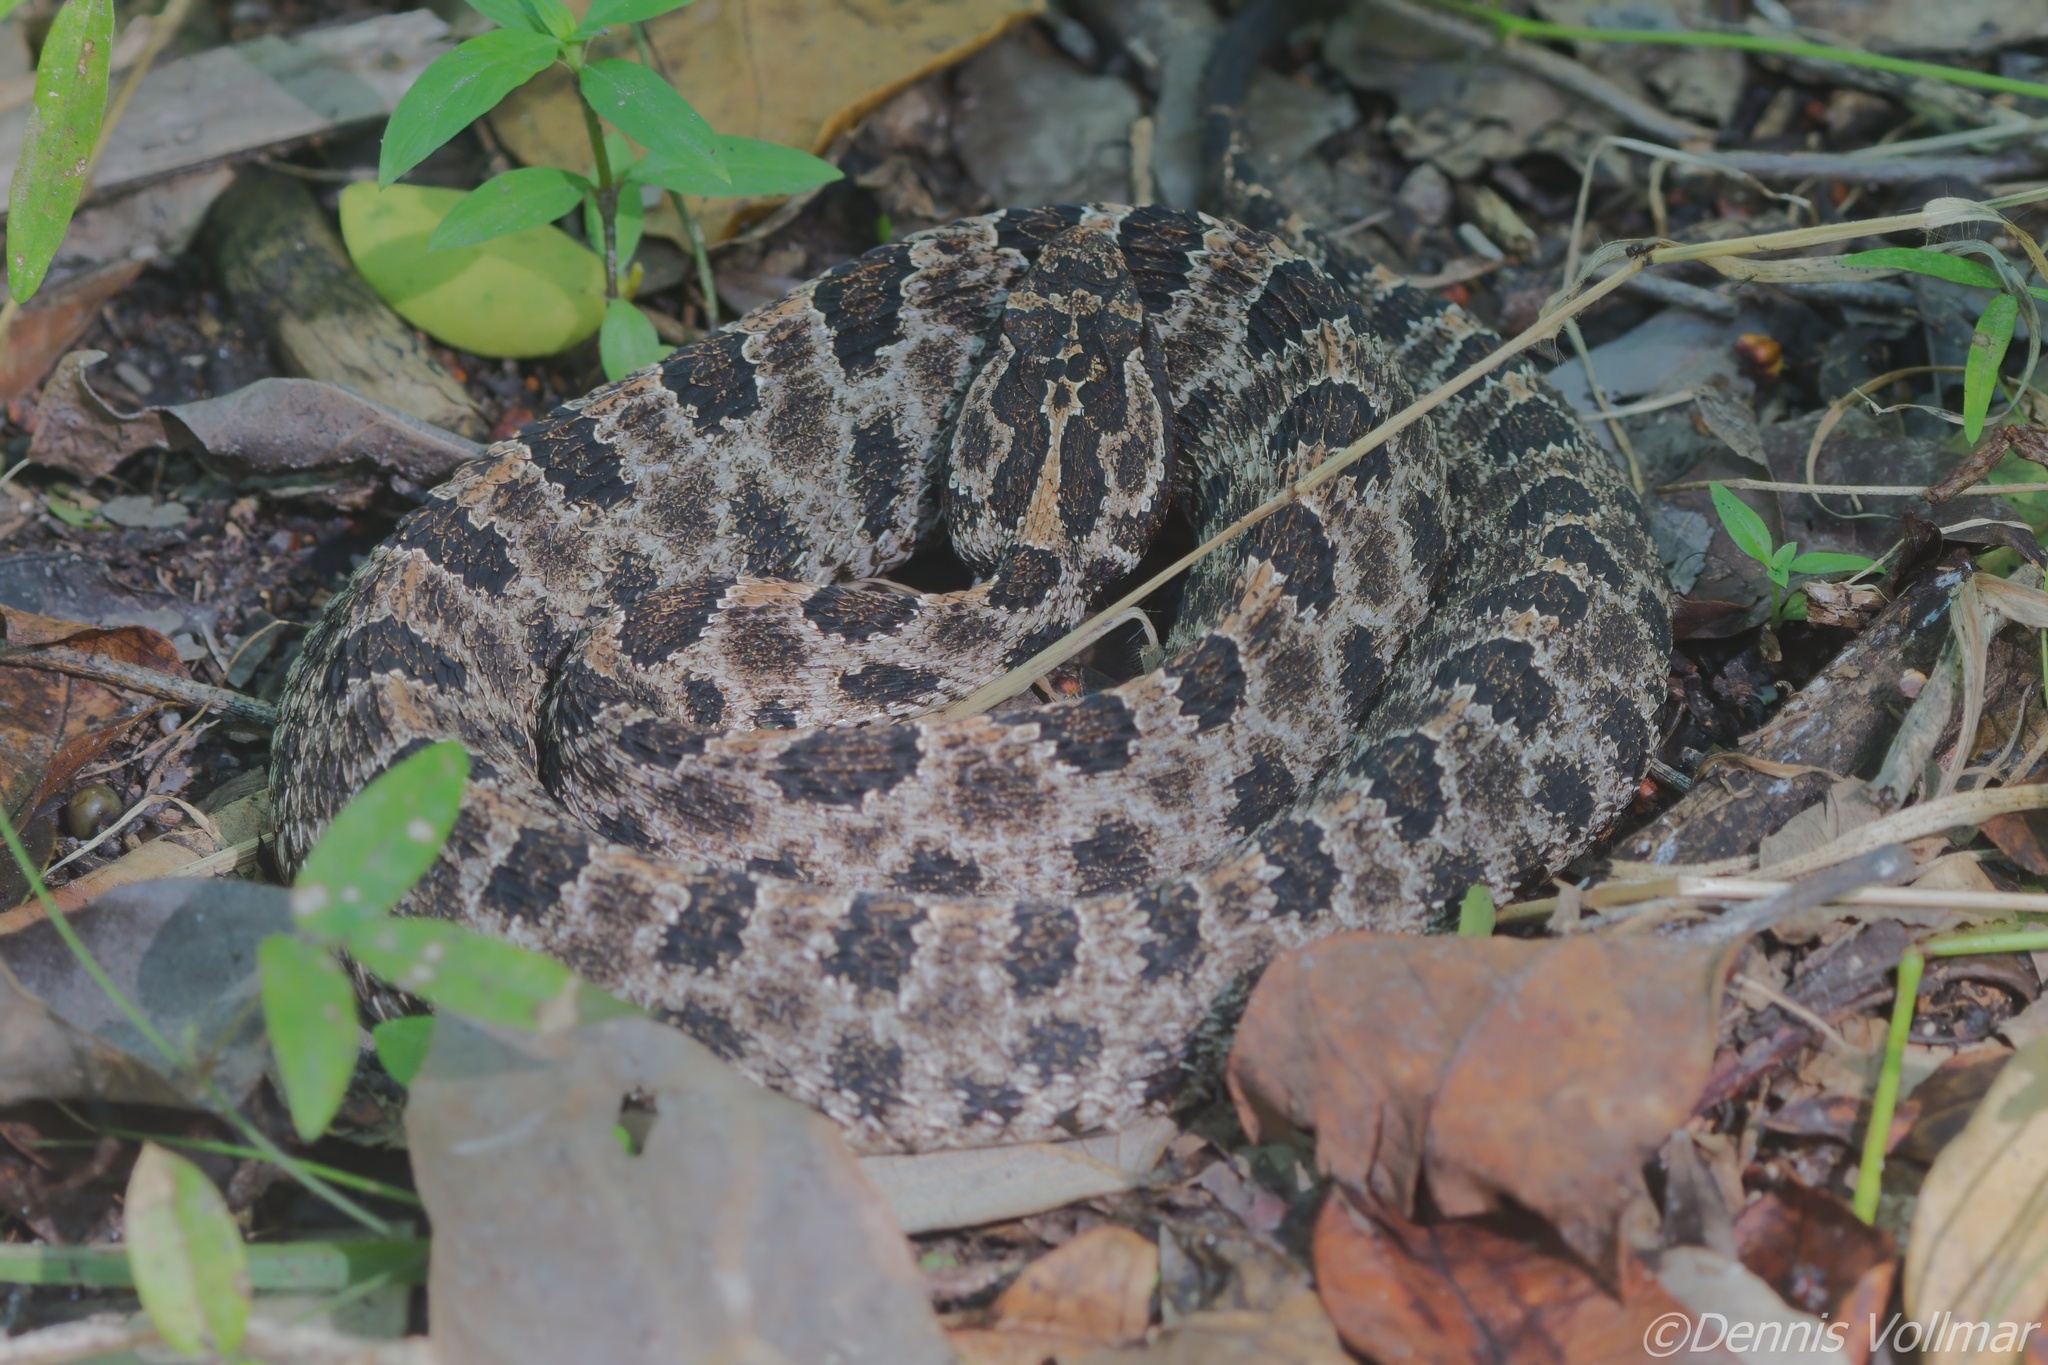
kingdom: Animalia
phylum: Chordata
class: Squamata
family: Viperidae
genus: Sistrurus
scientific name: Sistrurus miliarius
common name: Pygmy rattlesnake
